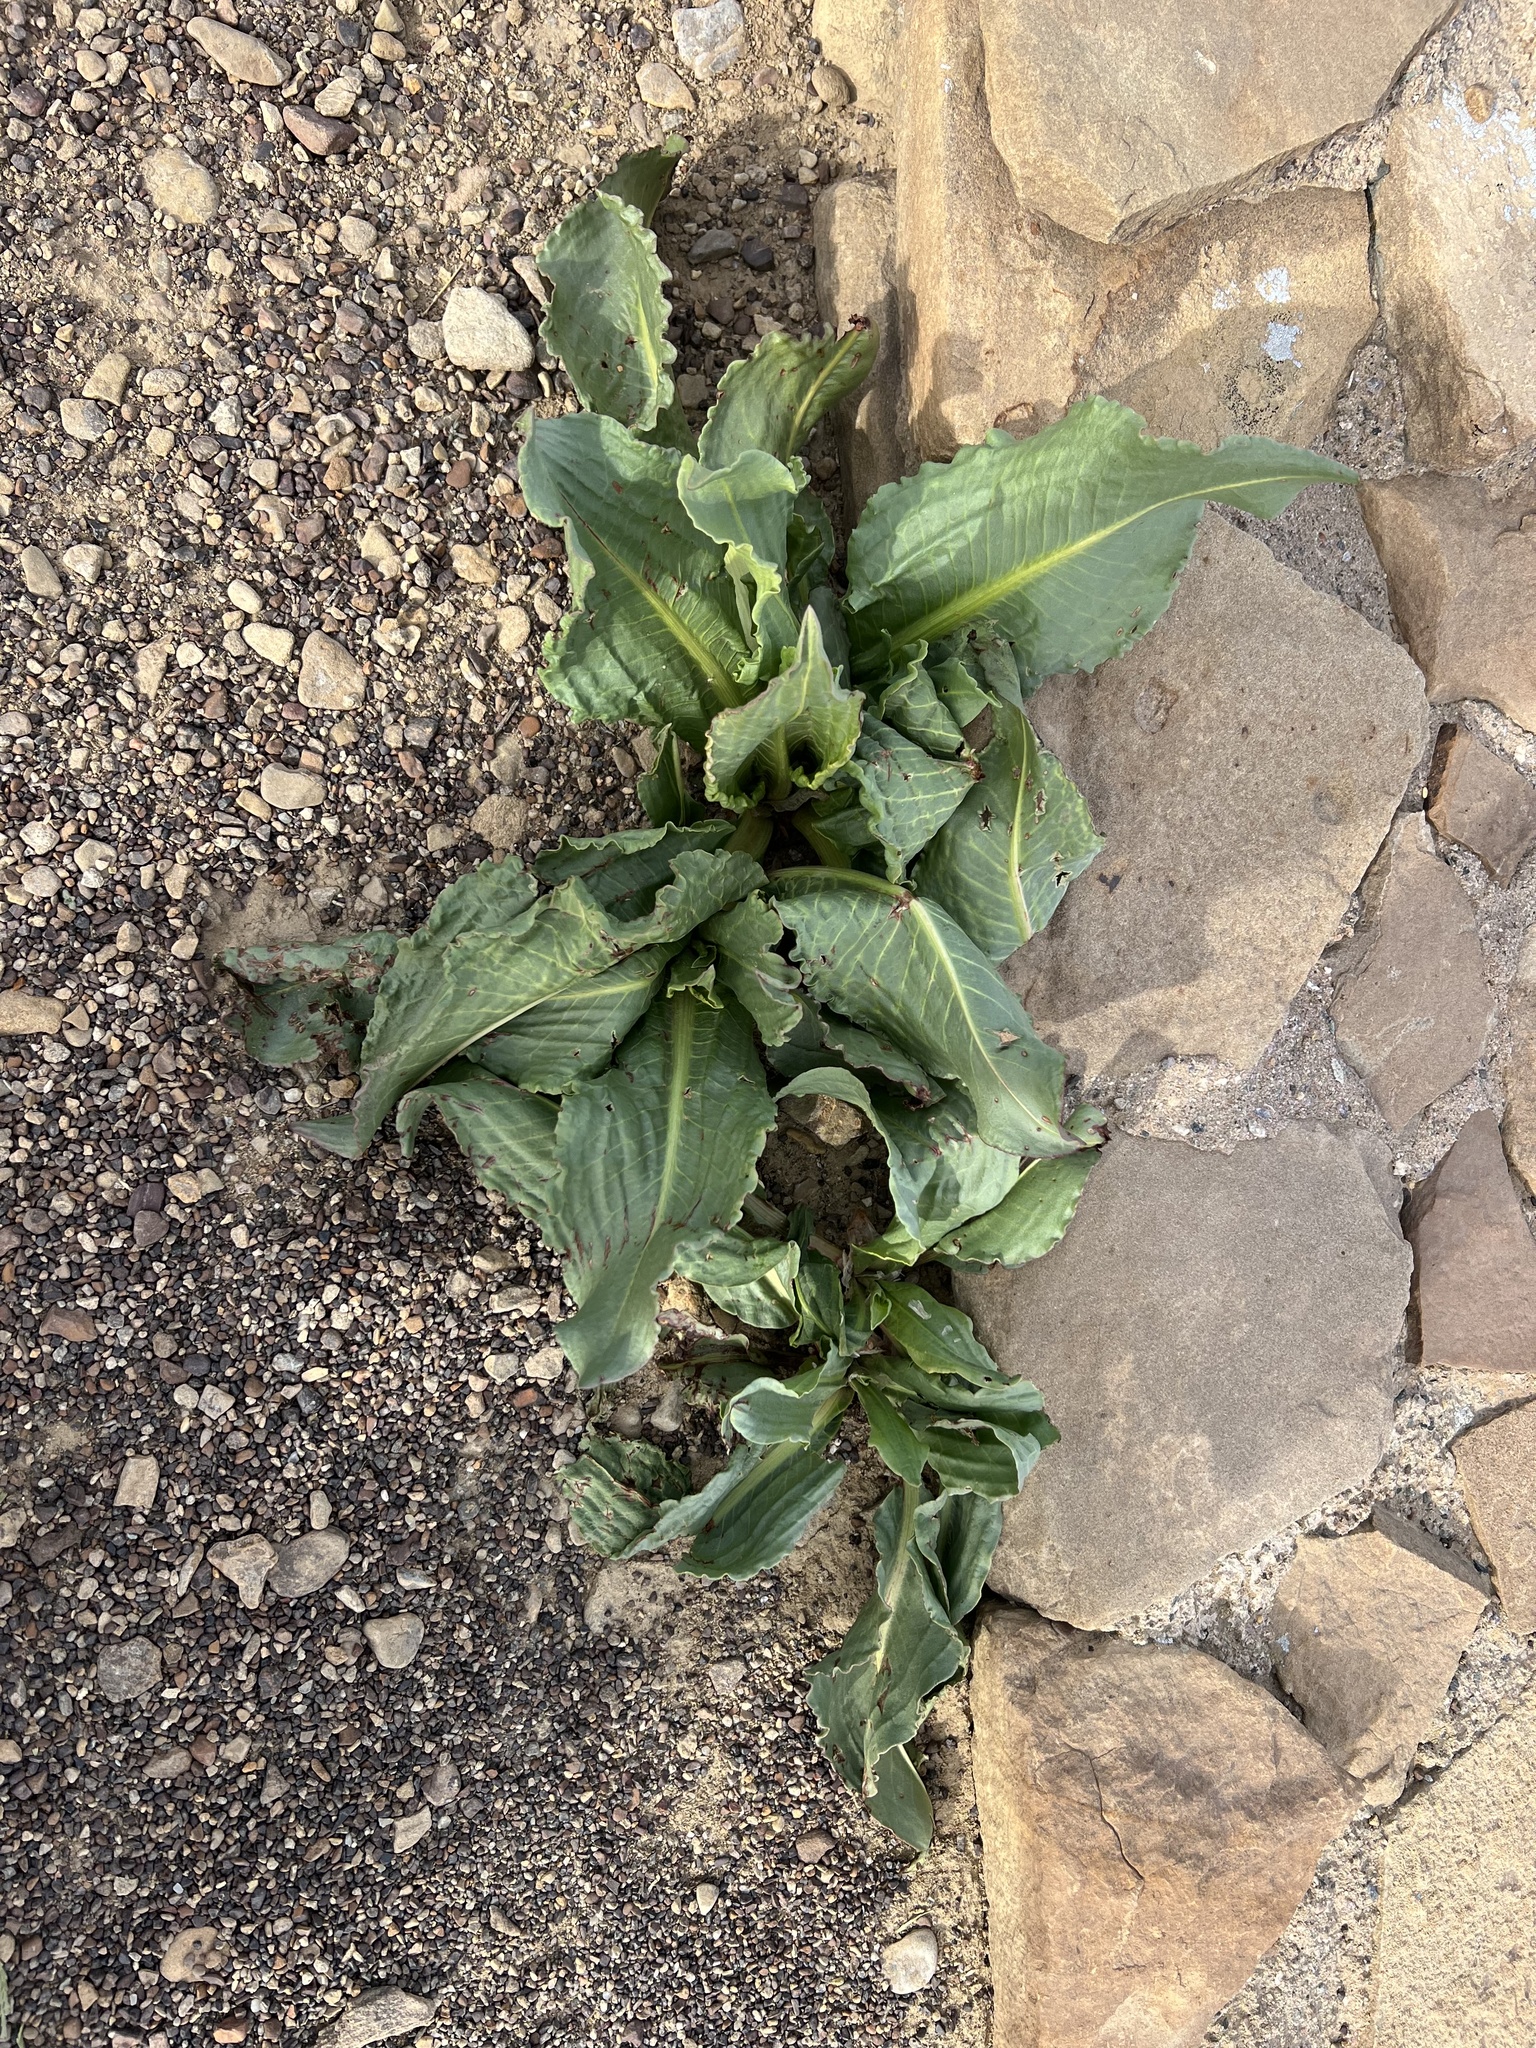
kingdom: Plantae
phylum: Tracheophyta
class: Magnoliopsida
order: Caryophyllales
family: Polygonaceae
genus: Rumex
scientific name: Rumex hymenosepalus
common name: Ganagra
